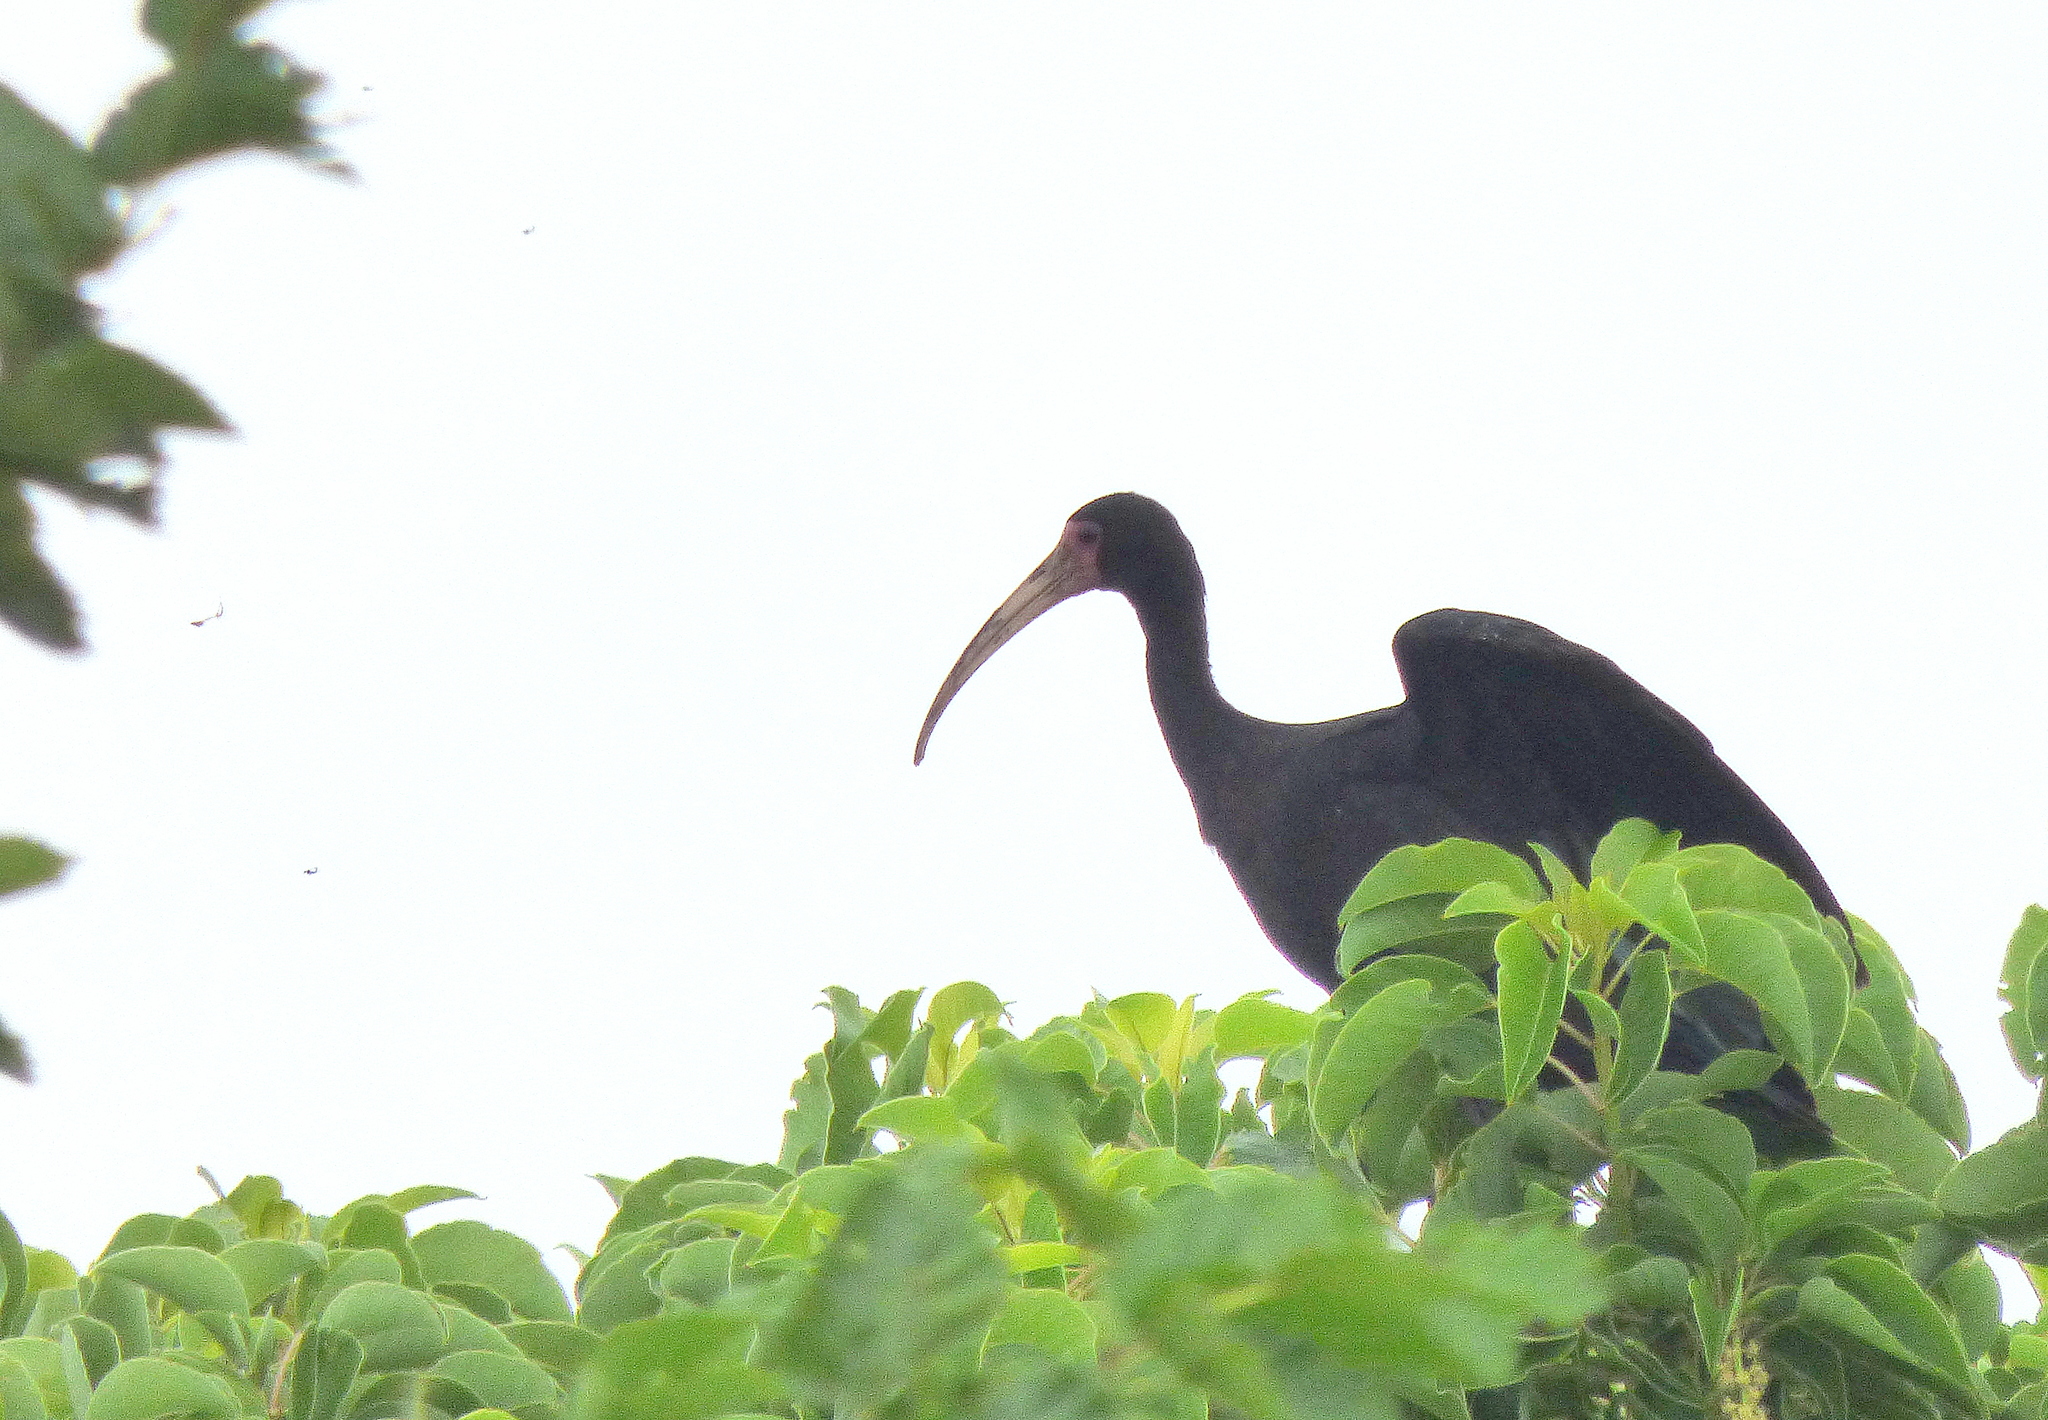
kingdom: Animalia
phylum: Chordata
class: Aves
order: Pelecaniformes
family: Threskiornithidae
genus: Phimosus
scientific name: Phimosus infuscatus
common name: Bare-faced ibis
